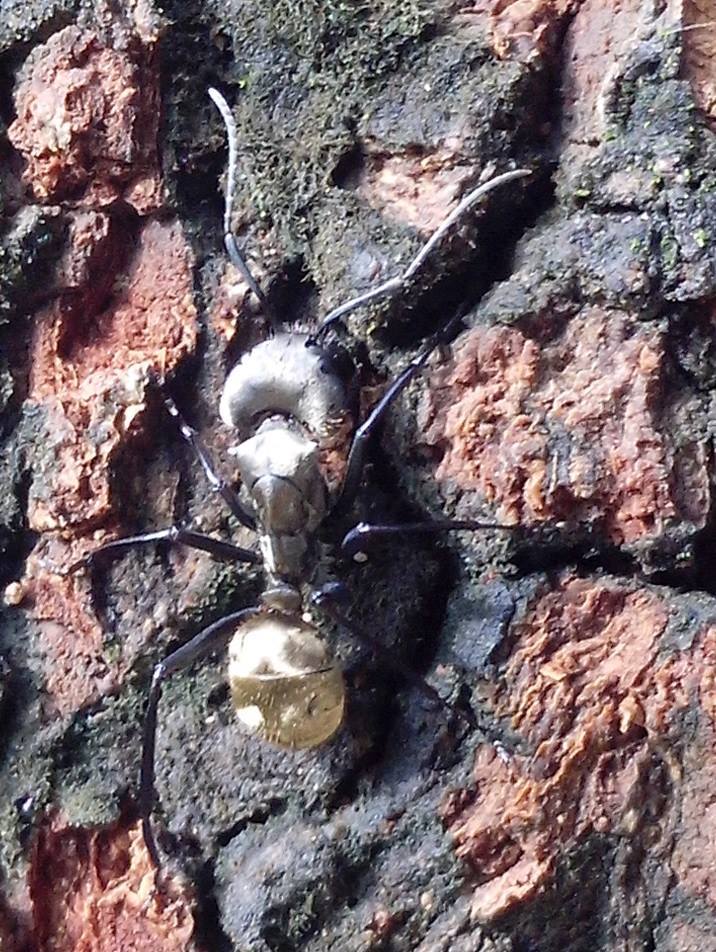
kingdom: Animalia
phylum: Arthropoda
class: Insecta
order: Hymenoptera
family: Formicidae
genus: Camponotus
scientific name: Camponotus sericeiventris
